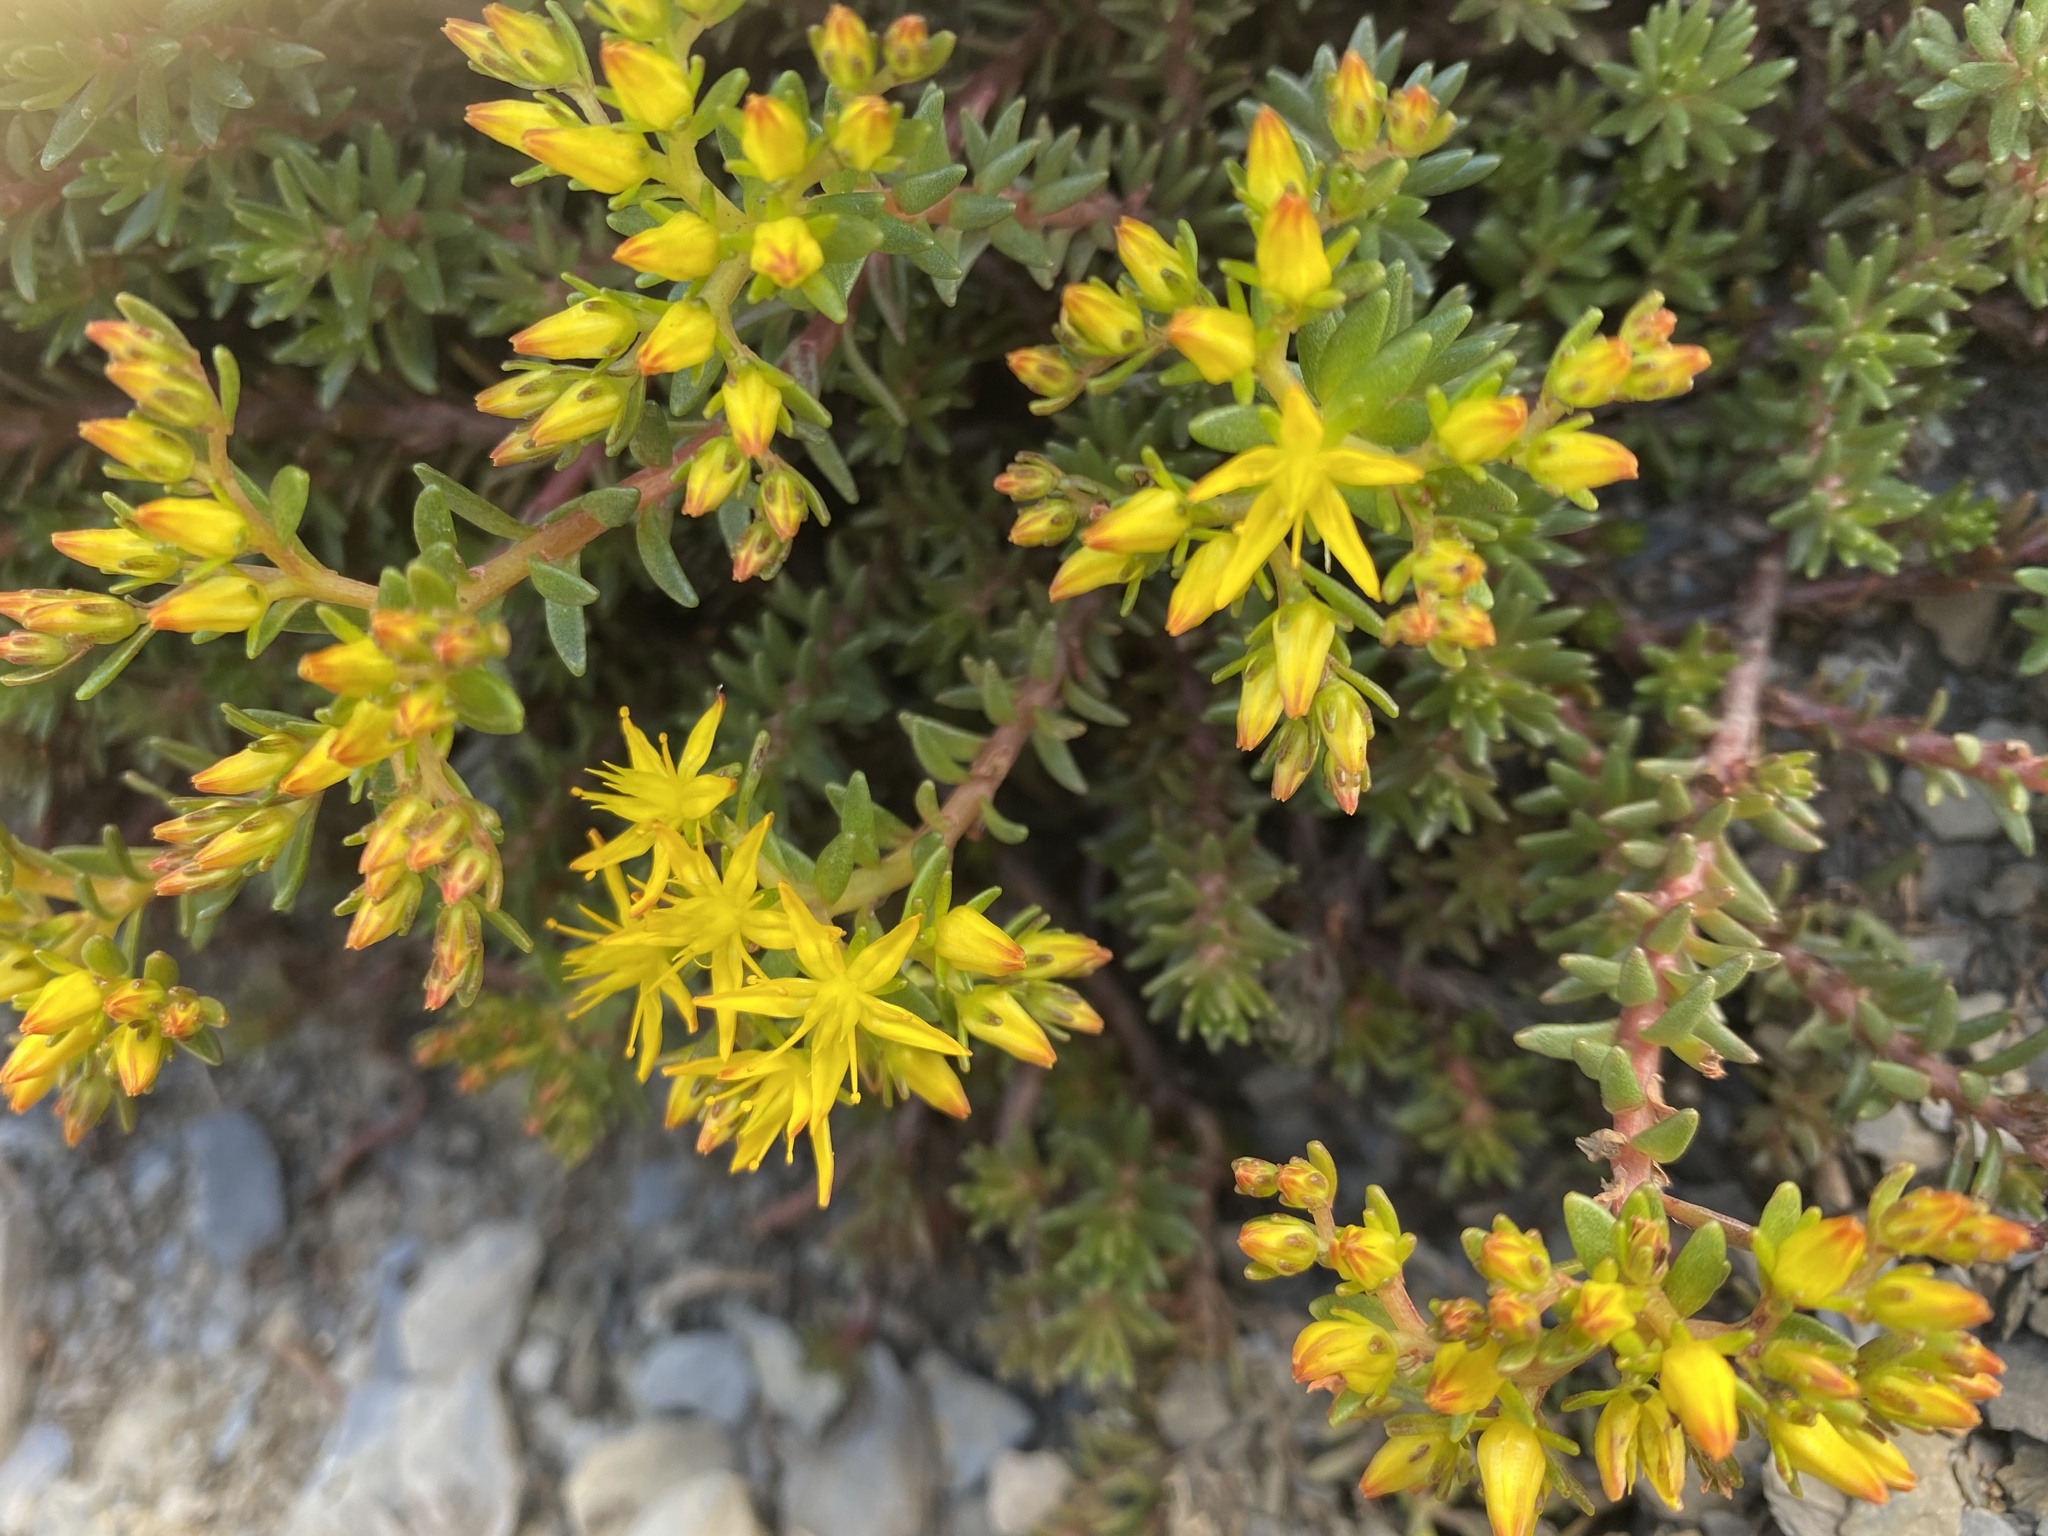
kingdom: Plantae
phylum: Tracheophyta
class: Magnoliopsida
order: Saxifragales
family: Crassulaceae
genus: Sedum
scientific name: Sedum morrisonense
